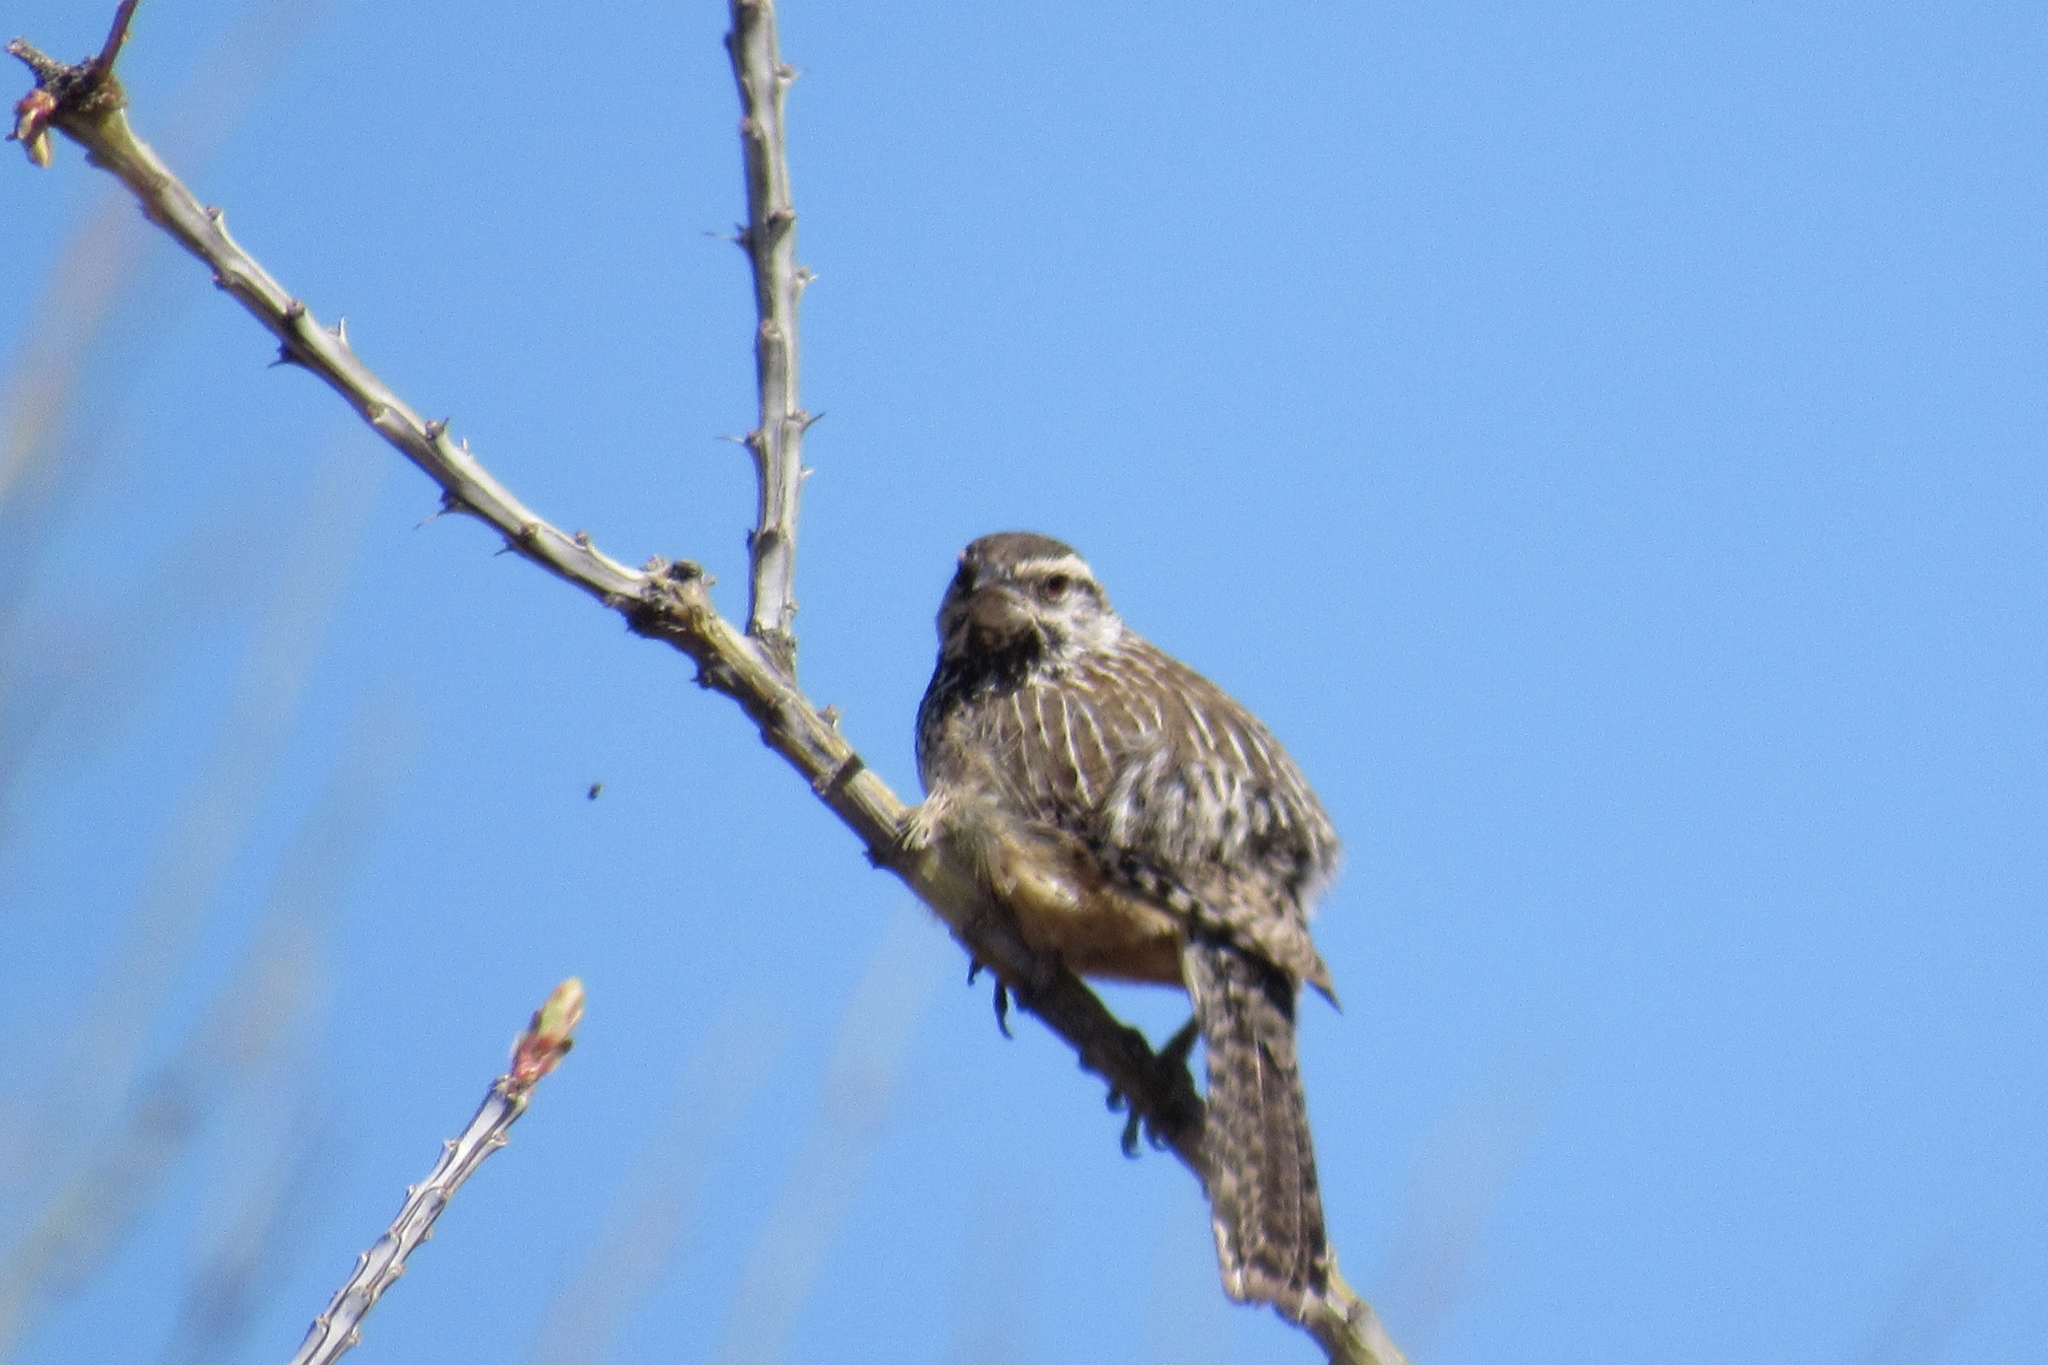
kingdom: Animalia
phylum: Chordata
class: Aves
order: Passeriformes
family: Troglodytidae
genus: Campylorhynchus
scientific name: Campylorhynchus brunneicapillus
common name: Cactus wren
